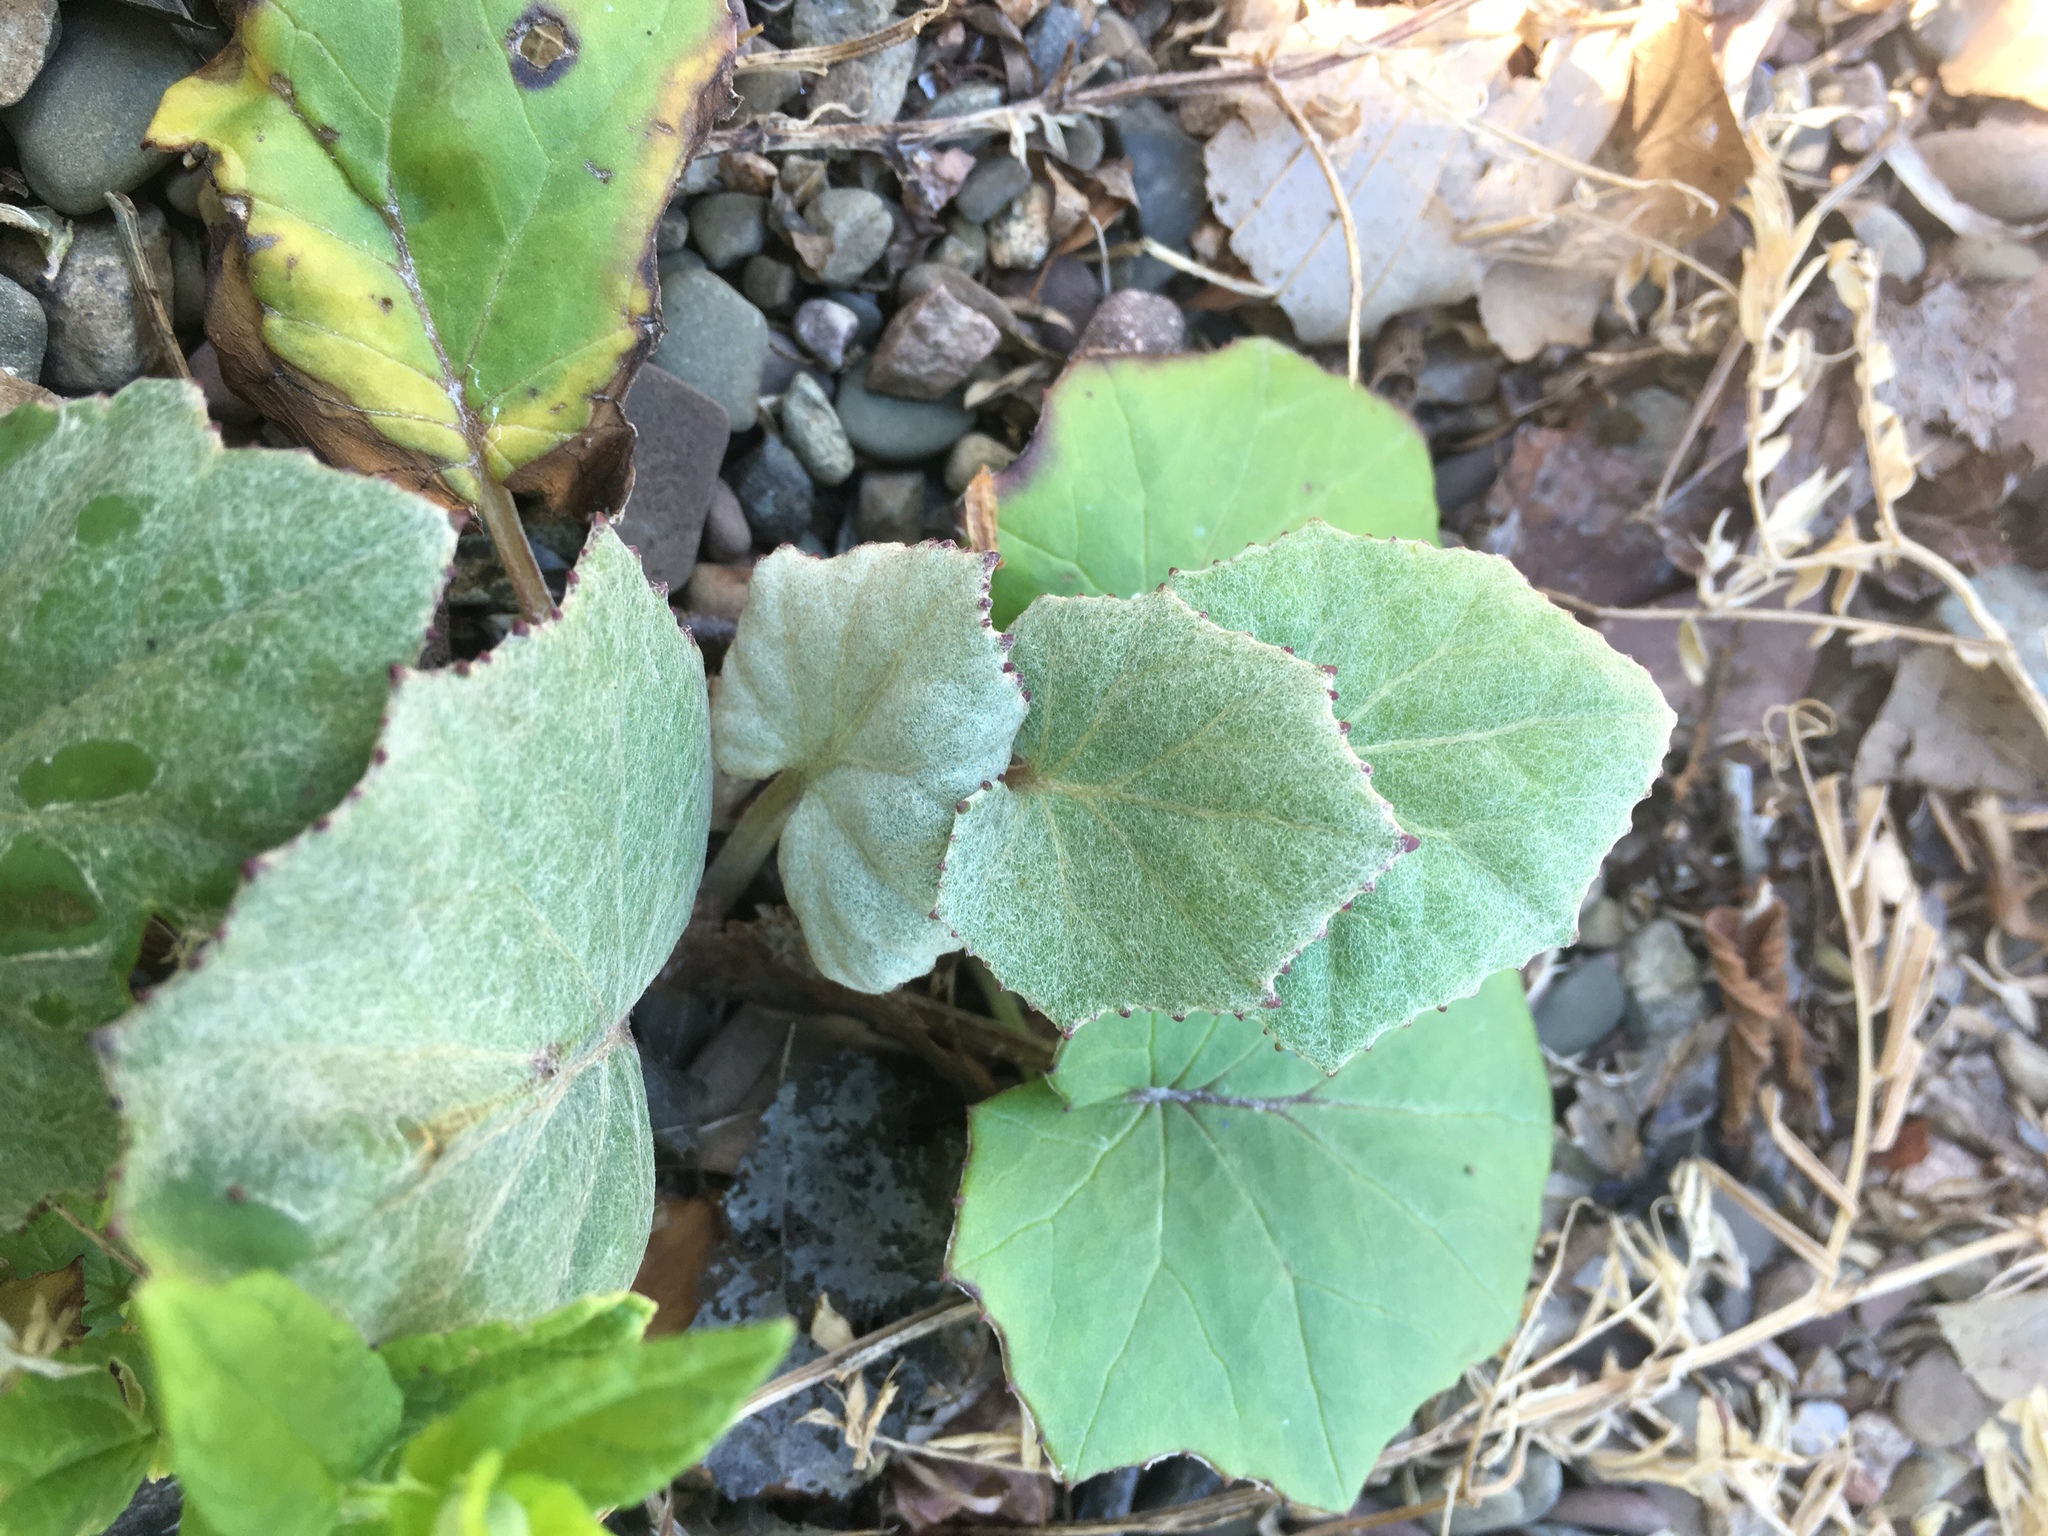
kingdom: Plantae
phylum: Tracheophyta
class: Magnoliopsida
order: Asterales
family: Asteraceae
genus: Tussilago
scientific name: Tussilago farfara
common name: Coltsfoot
